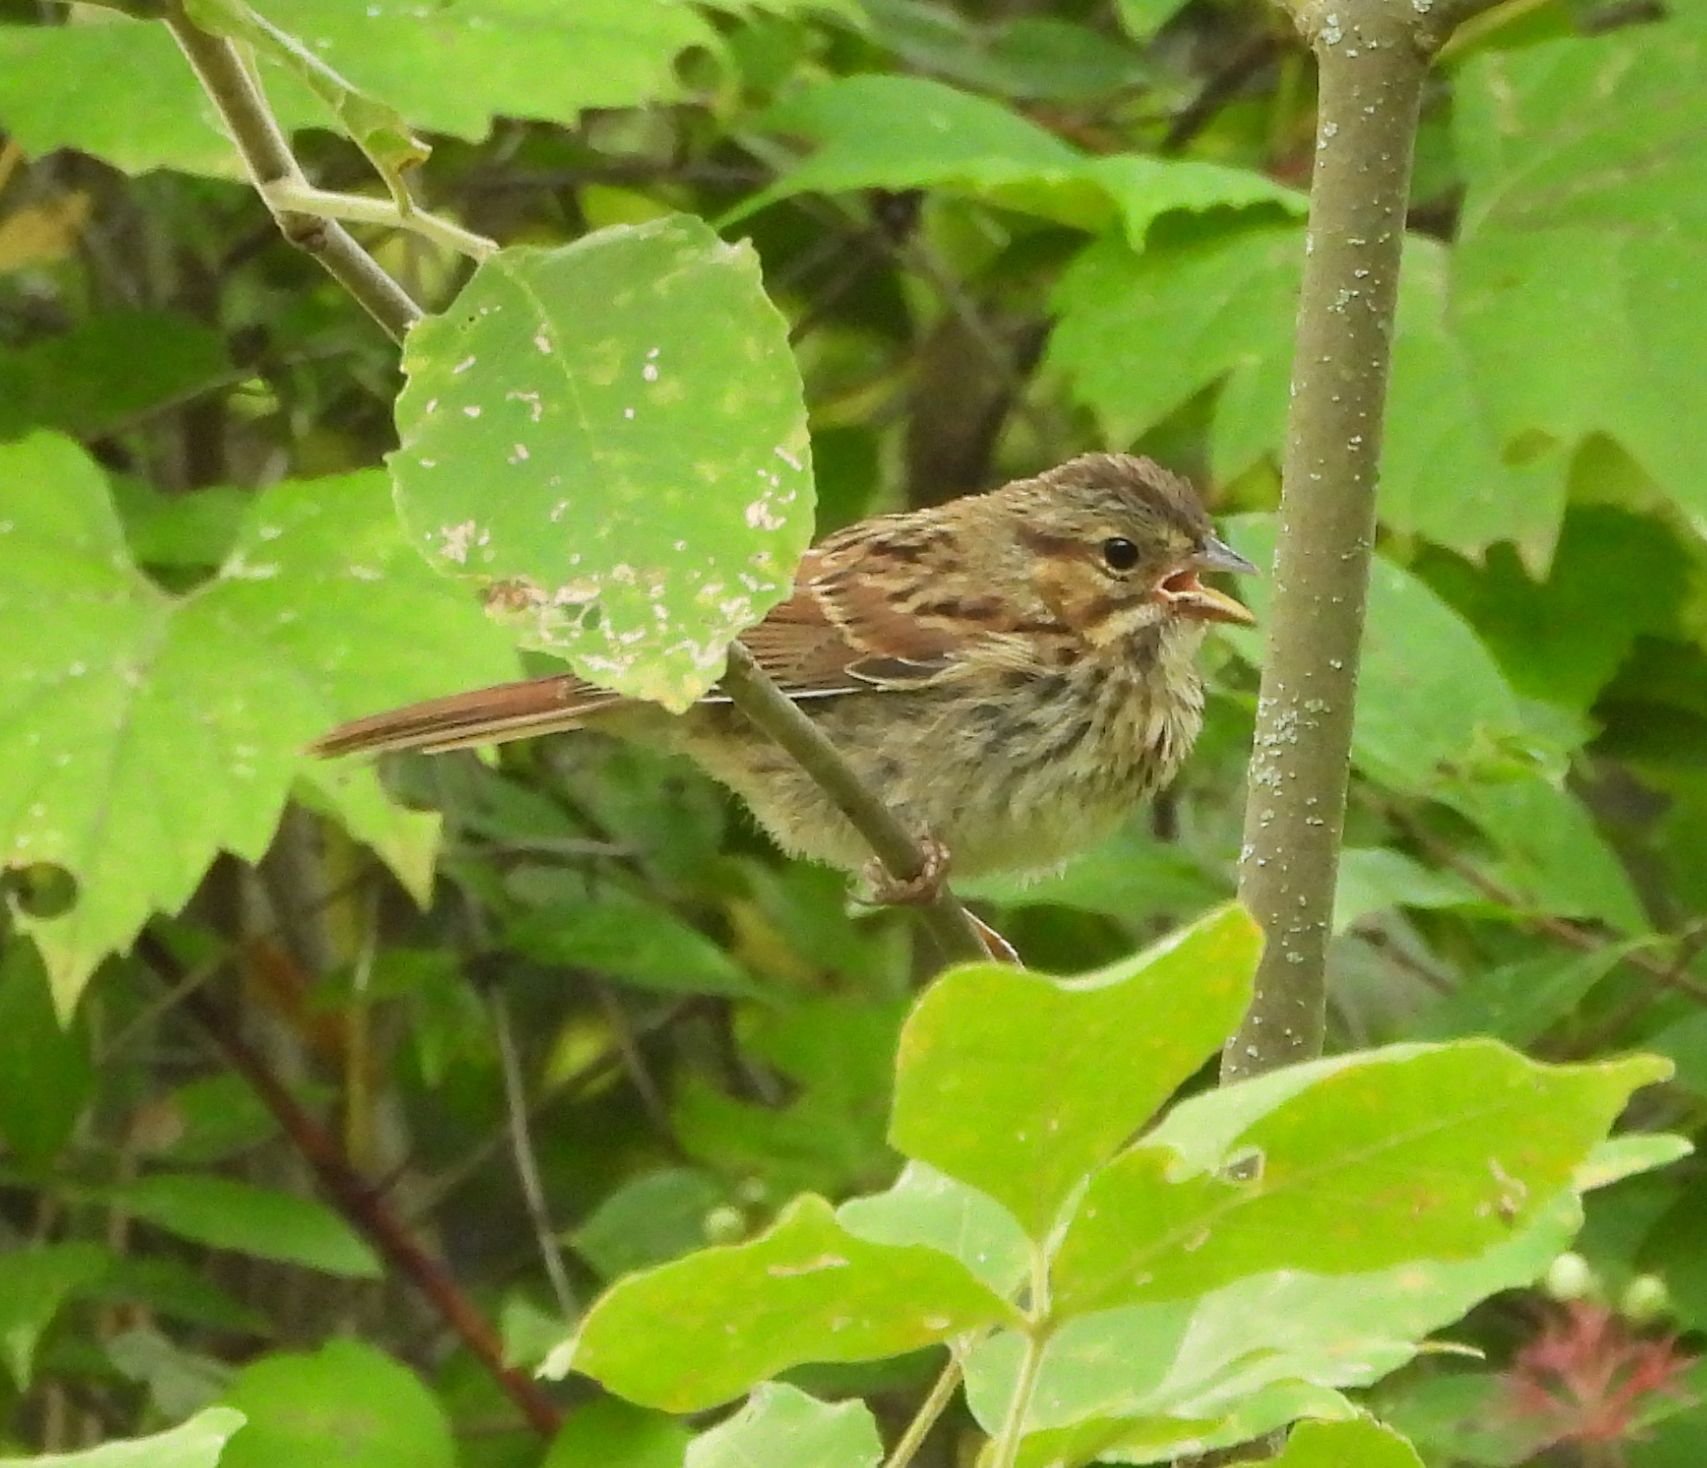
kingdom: Animalia
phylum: Chordata
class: Aves
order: Passeriformes
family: Passerellidae
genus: Melospiza
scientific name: Melospiza melodia
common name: Song sparrow
